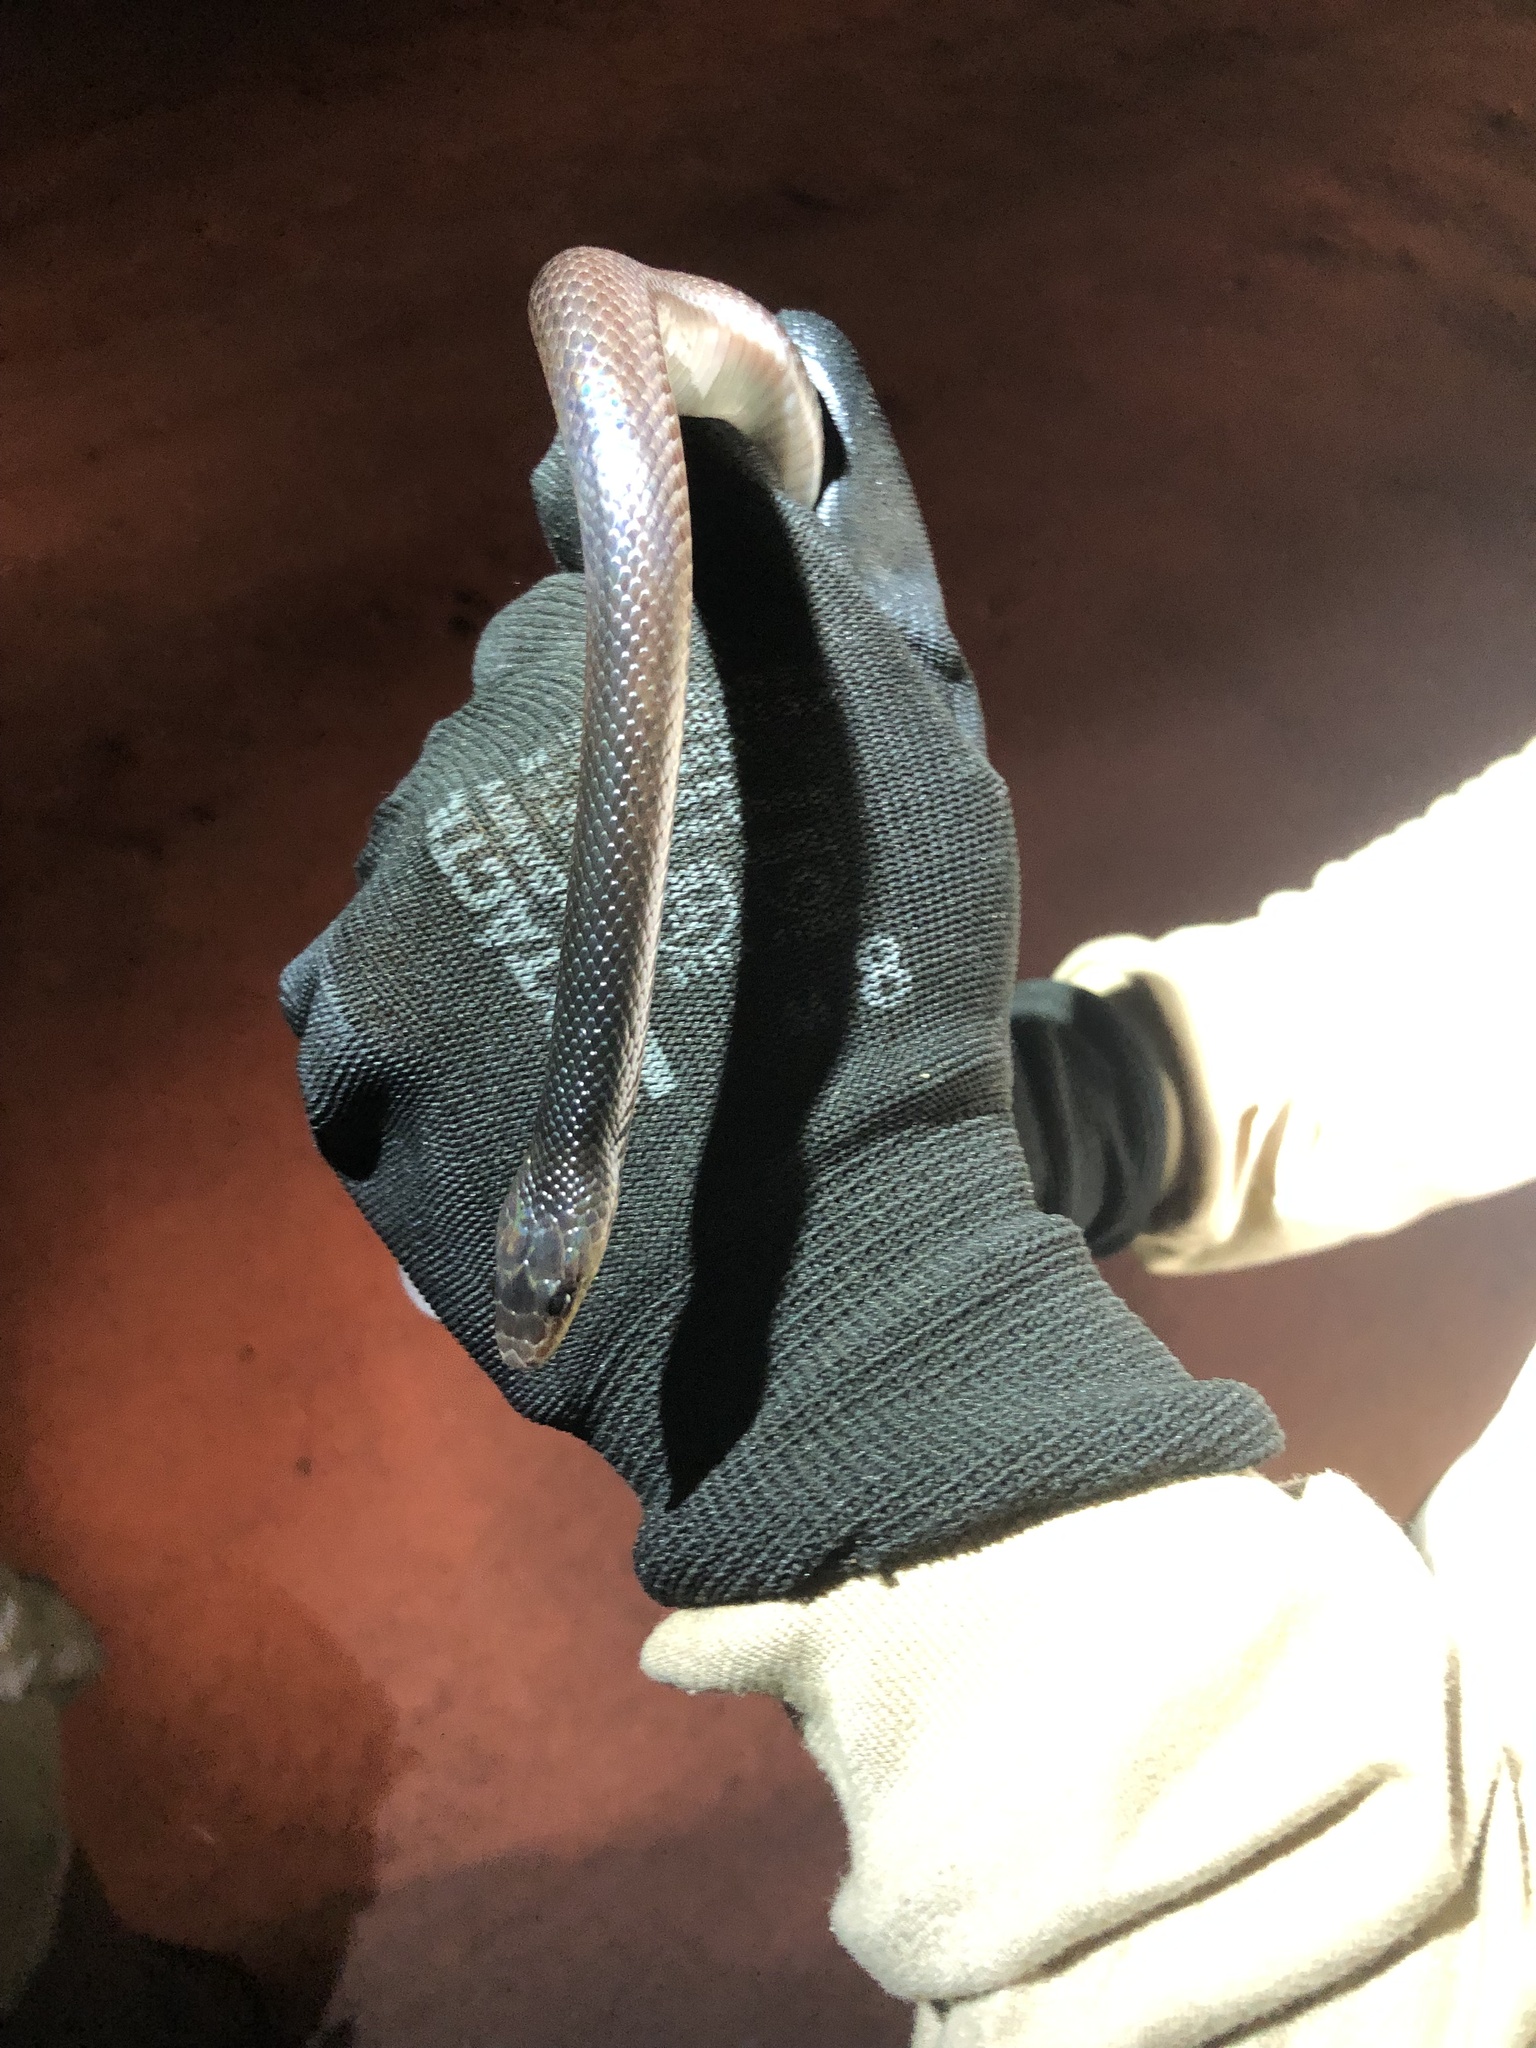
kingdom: Animalia
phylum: Chordata
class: Squamata
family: Colubridae
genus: Pseudoboa
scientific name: Pseudoboa nigra
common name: Black false boa
